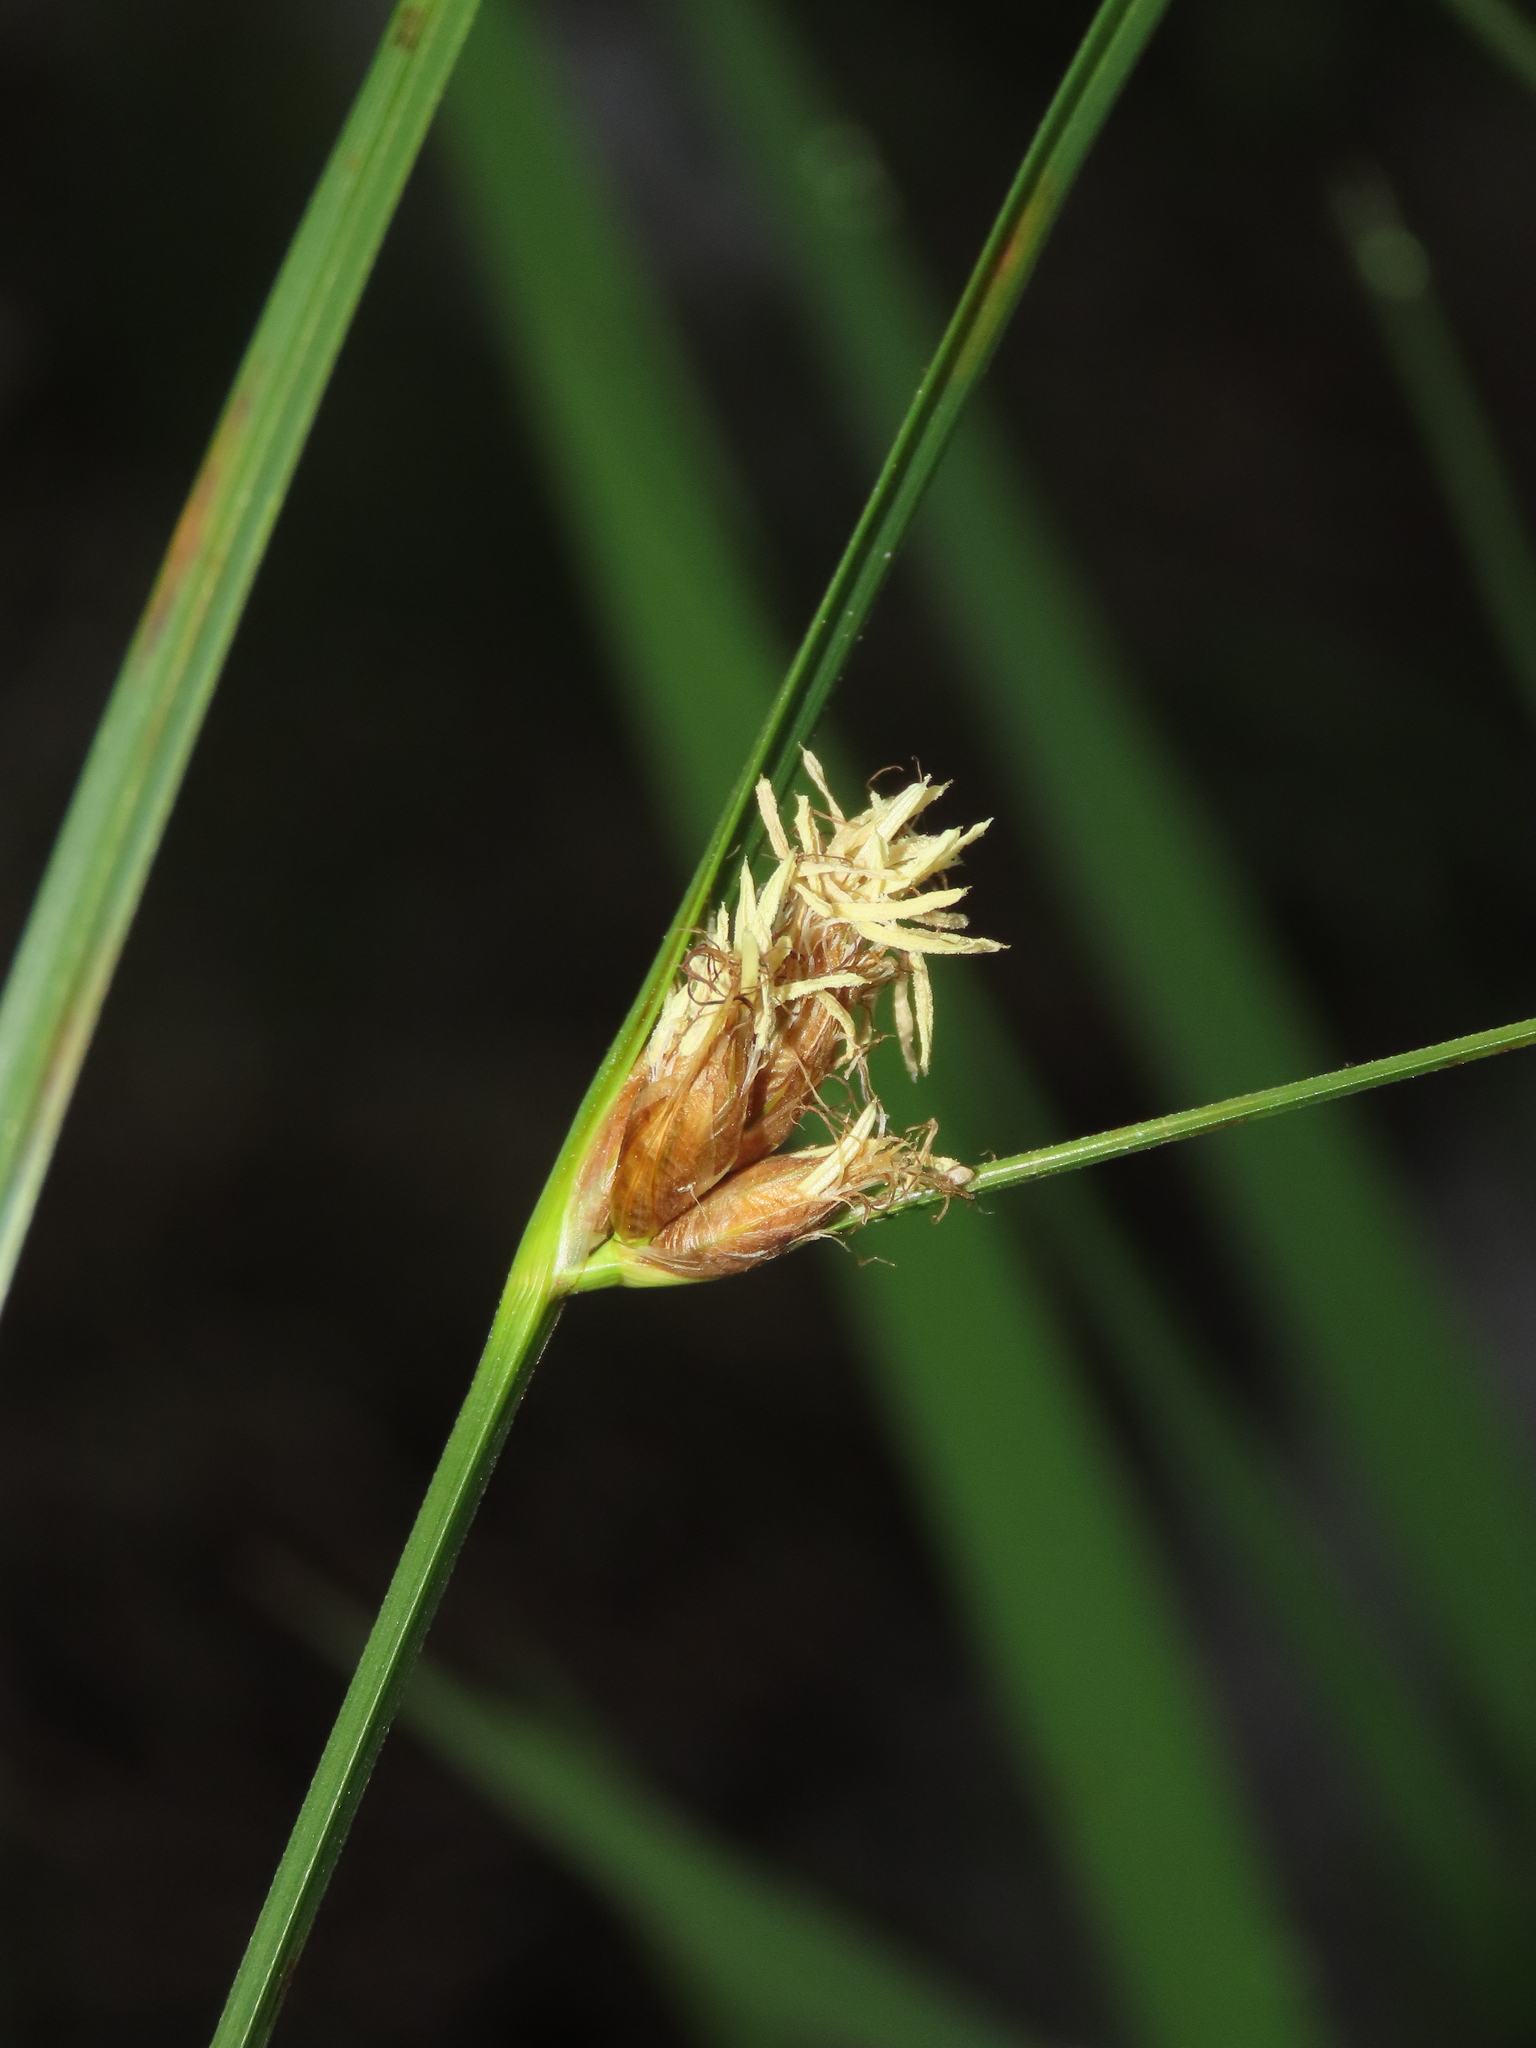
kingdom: Plantae
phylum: Tracheophyta
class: Liliopsida
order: Poales
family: Cyperaceae
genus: Bolboschoenus
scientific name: Bolboschoenus maritimus
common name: Sea club-rush
